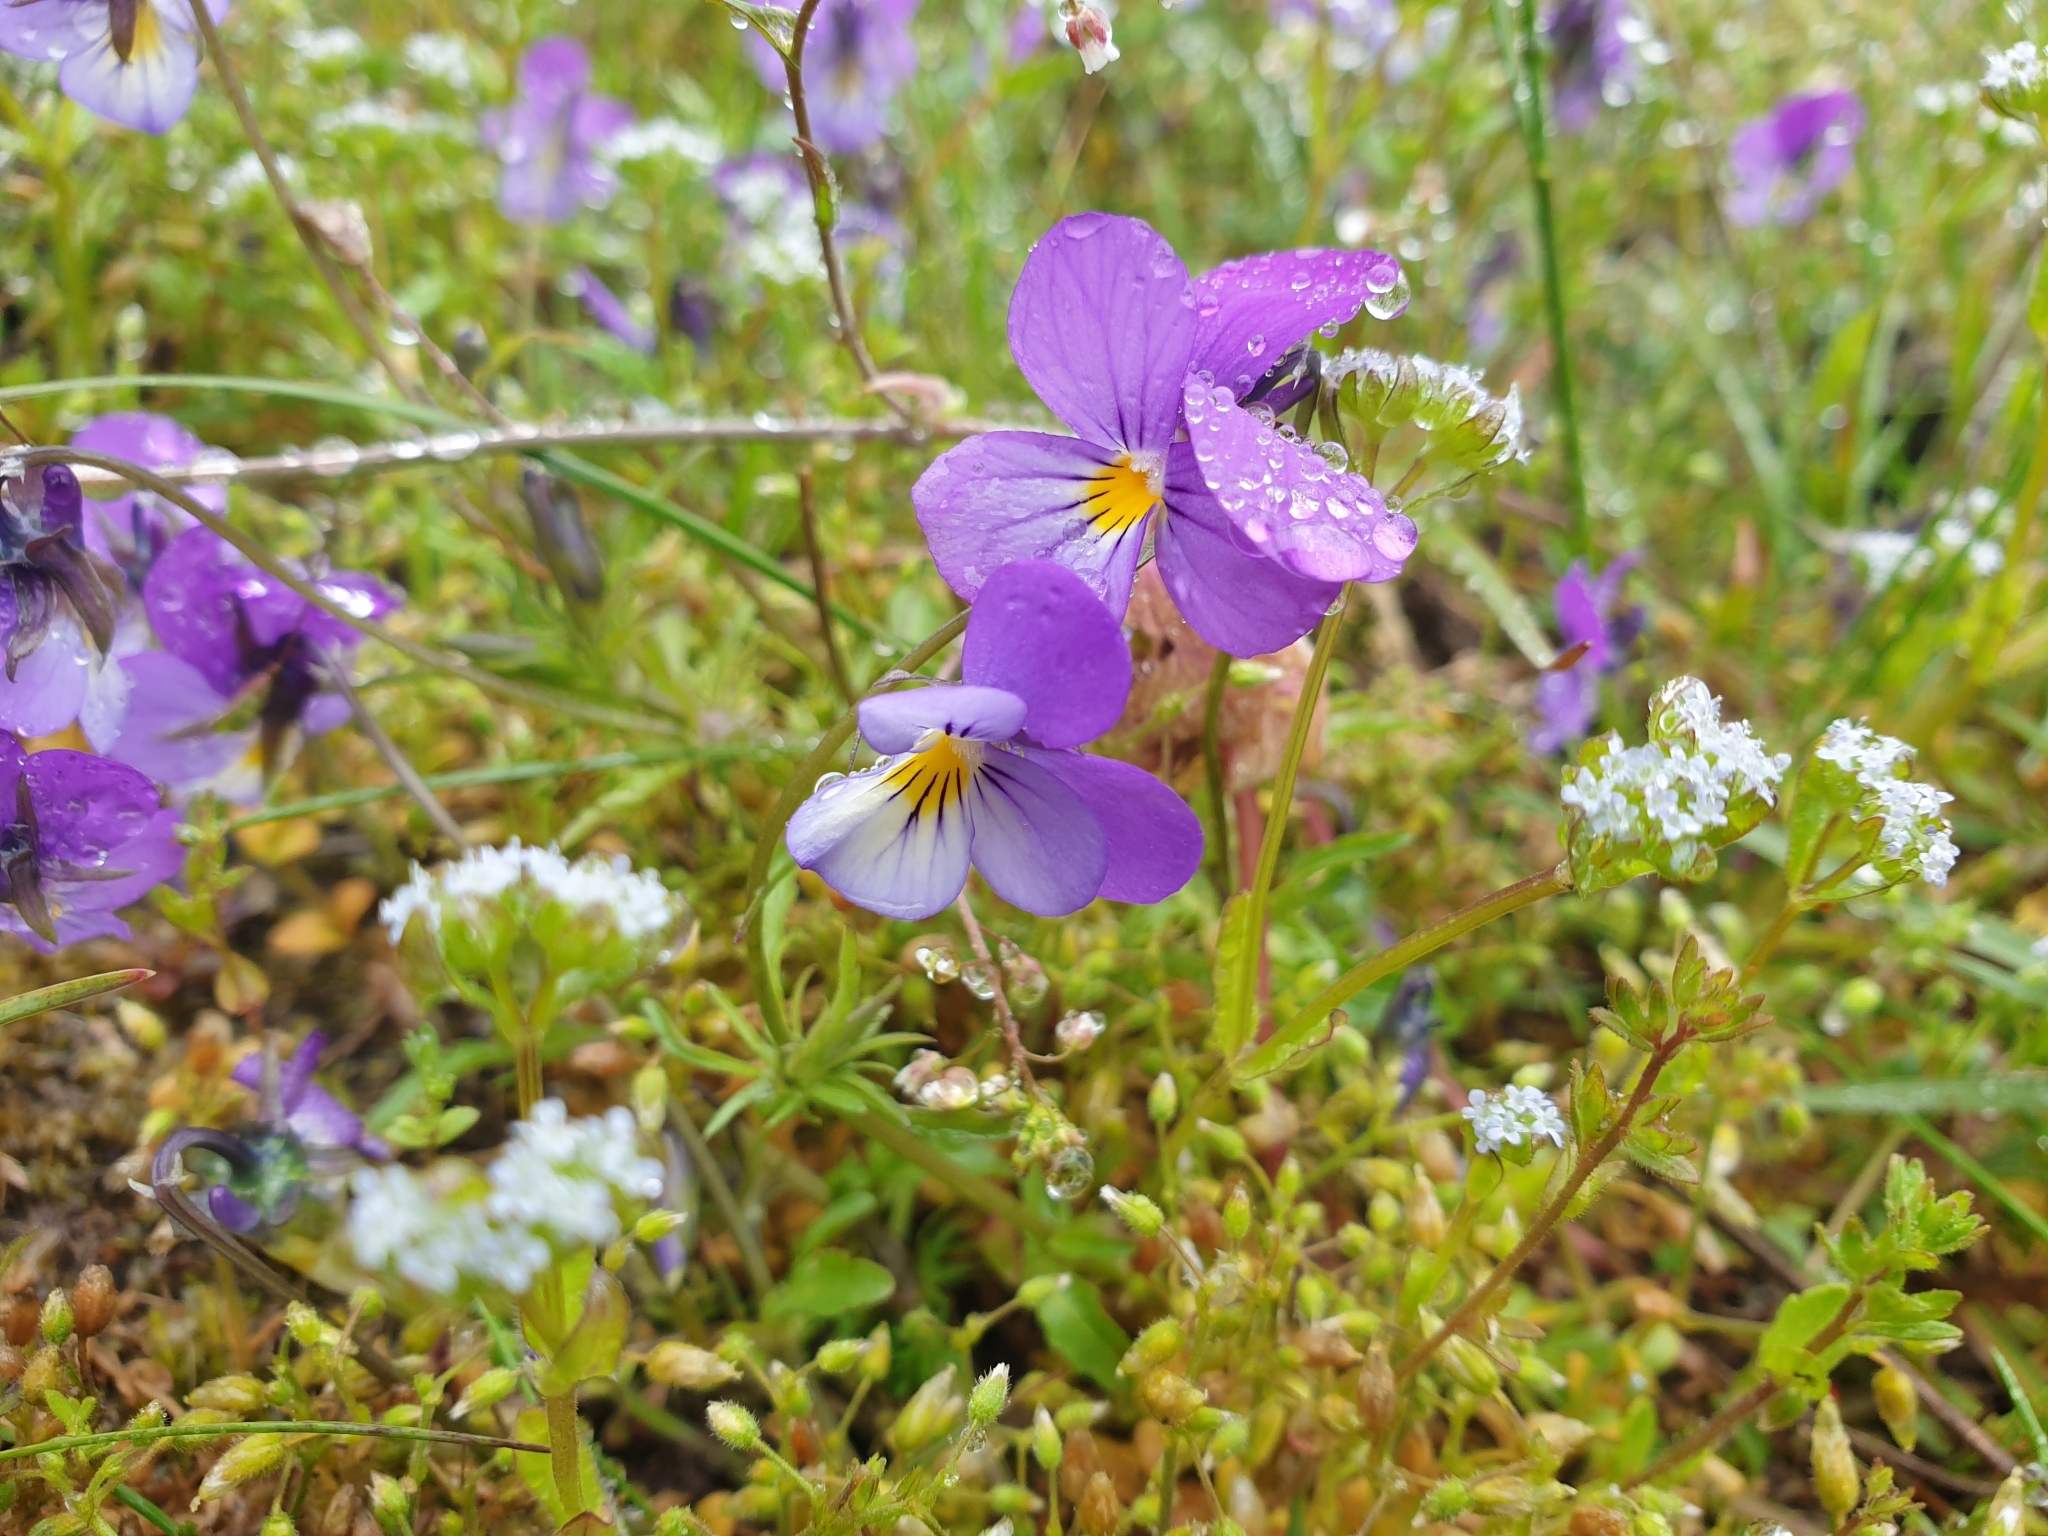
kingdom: Plantae
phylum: Tracheophyta
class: Magnoliopsida
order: Malpighiales
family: Violaceae
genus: Viola
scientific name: Viola tricolor
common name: Pansy
